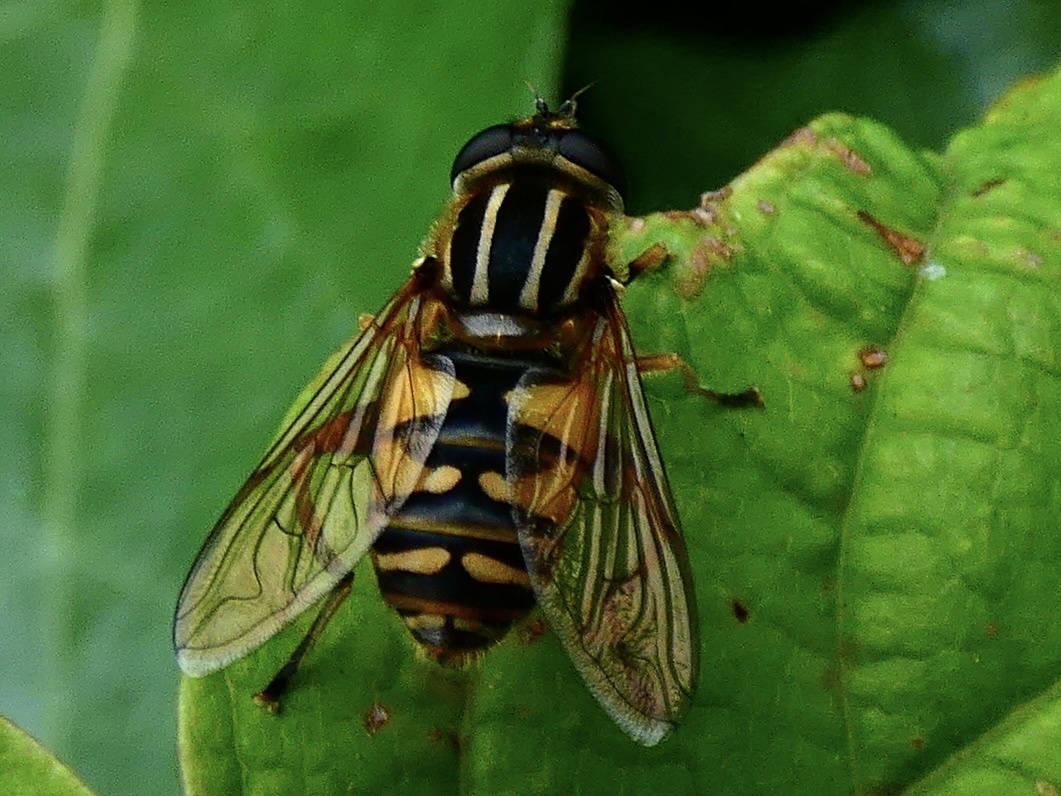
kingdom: Animalia
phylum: Arthropoda
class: Insecta
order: Diptera
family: Syrphidae
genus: Helophilus
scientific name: Helophilus pendulus
